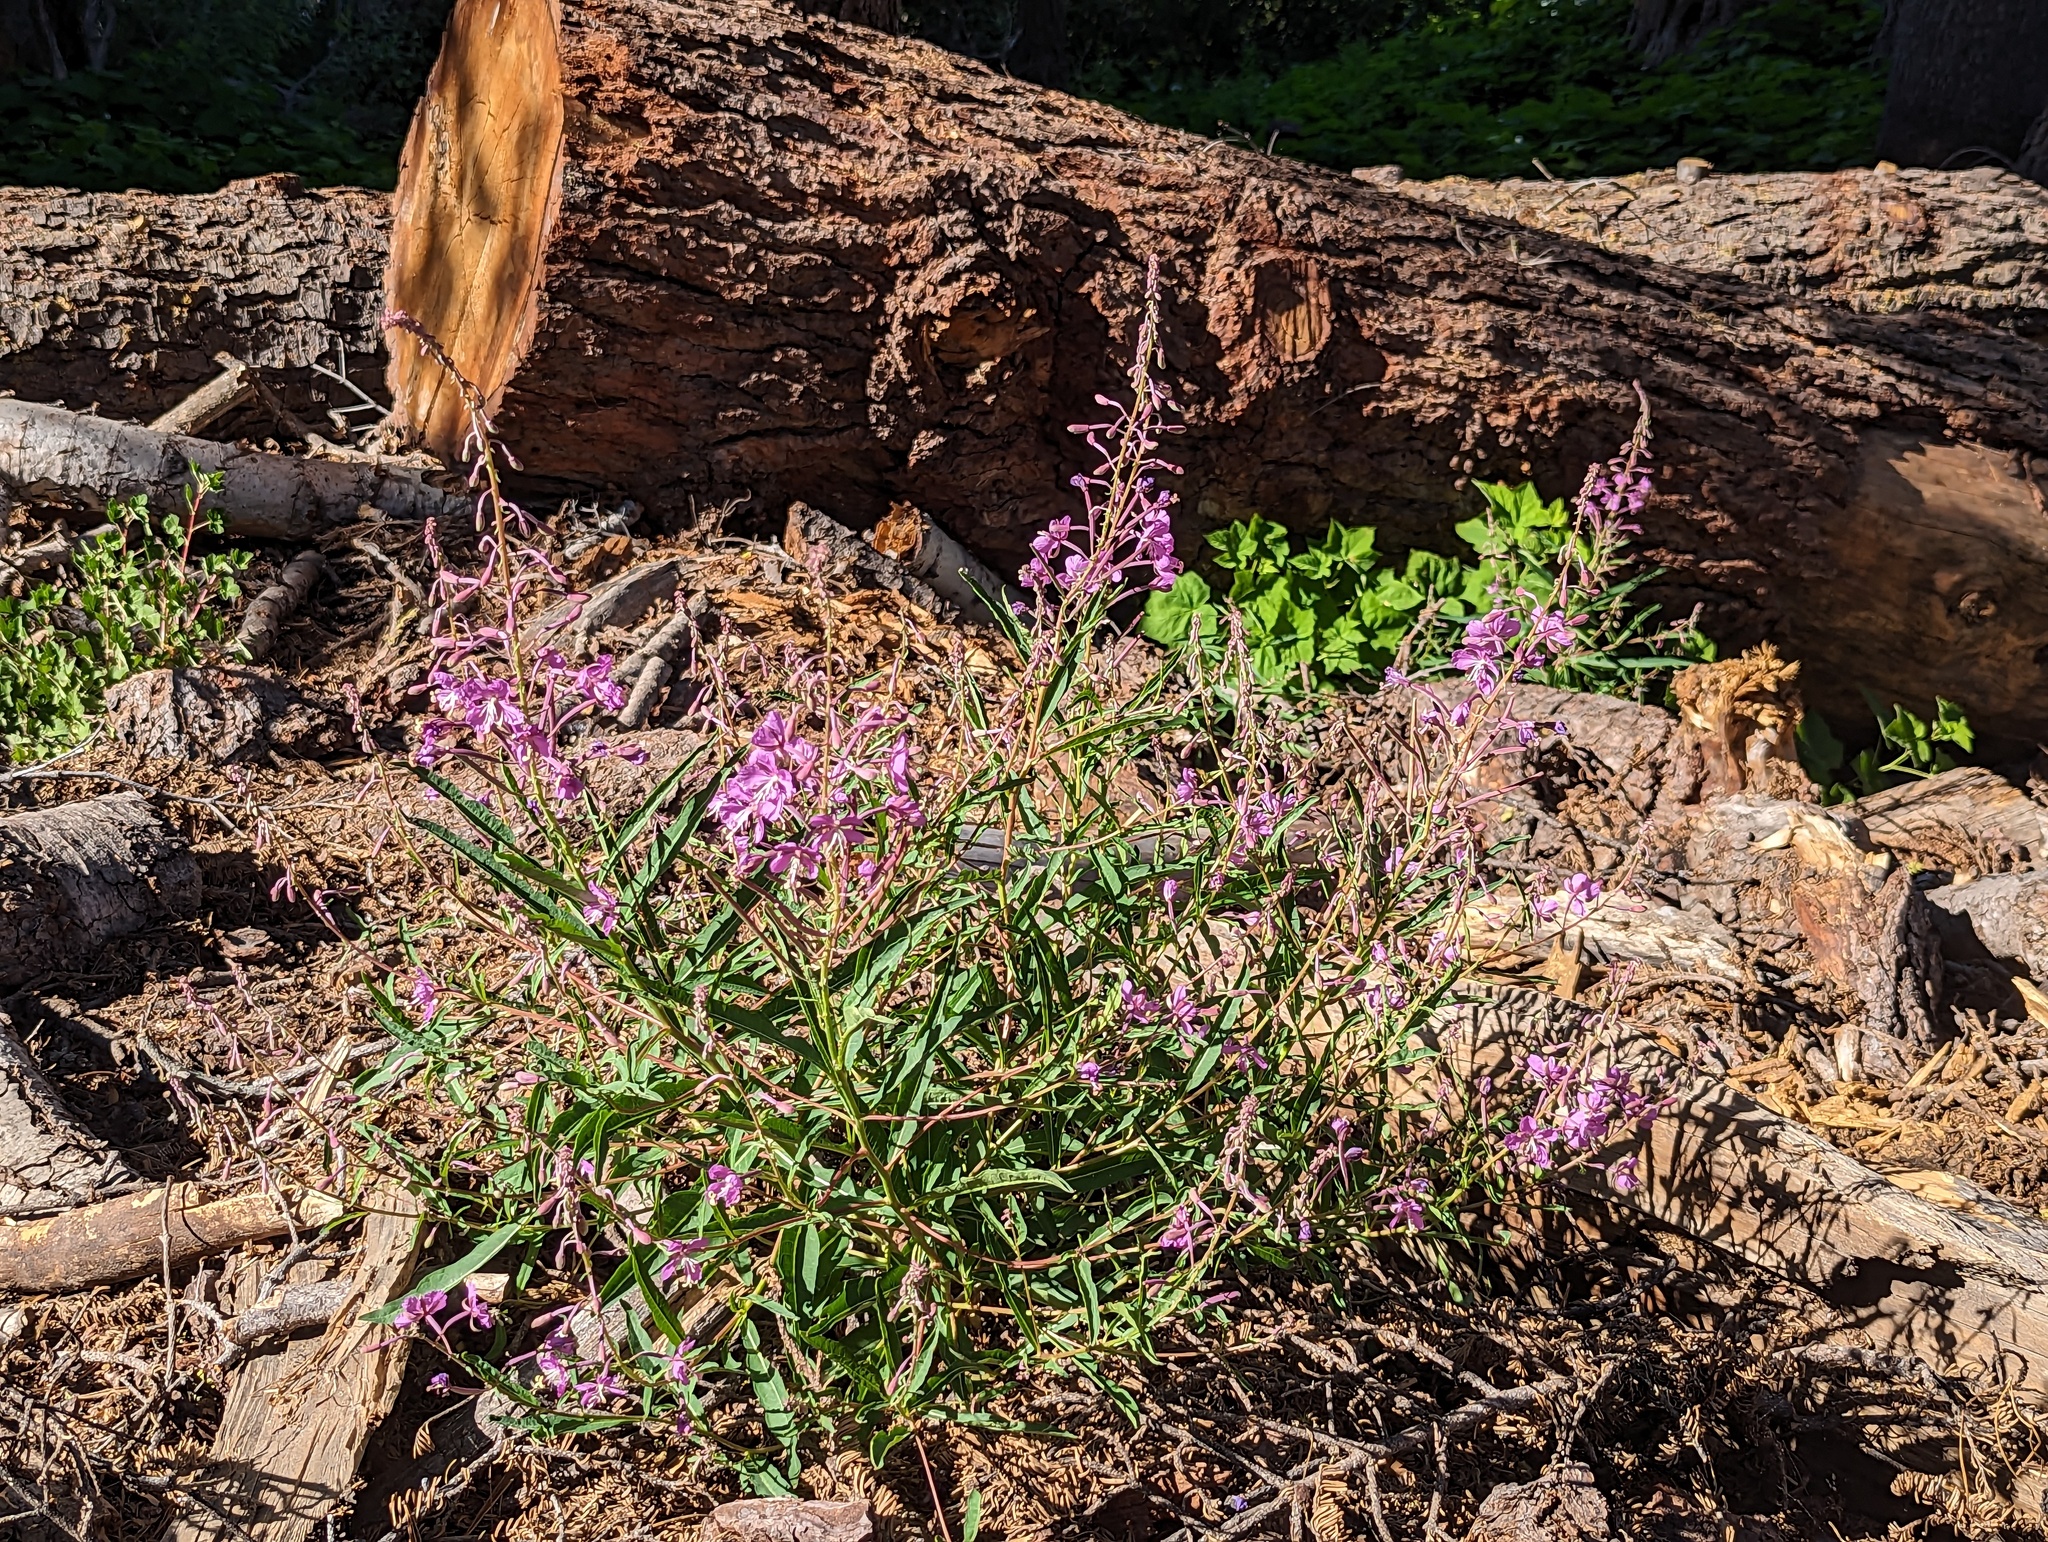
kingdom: Plantae
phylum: Tracheophyta
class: Magnoliopsida
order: Myrtales
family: Onagraceae
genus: Chamaenerion
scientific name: Chamaenerion angustifolium
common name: Fireweed
